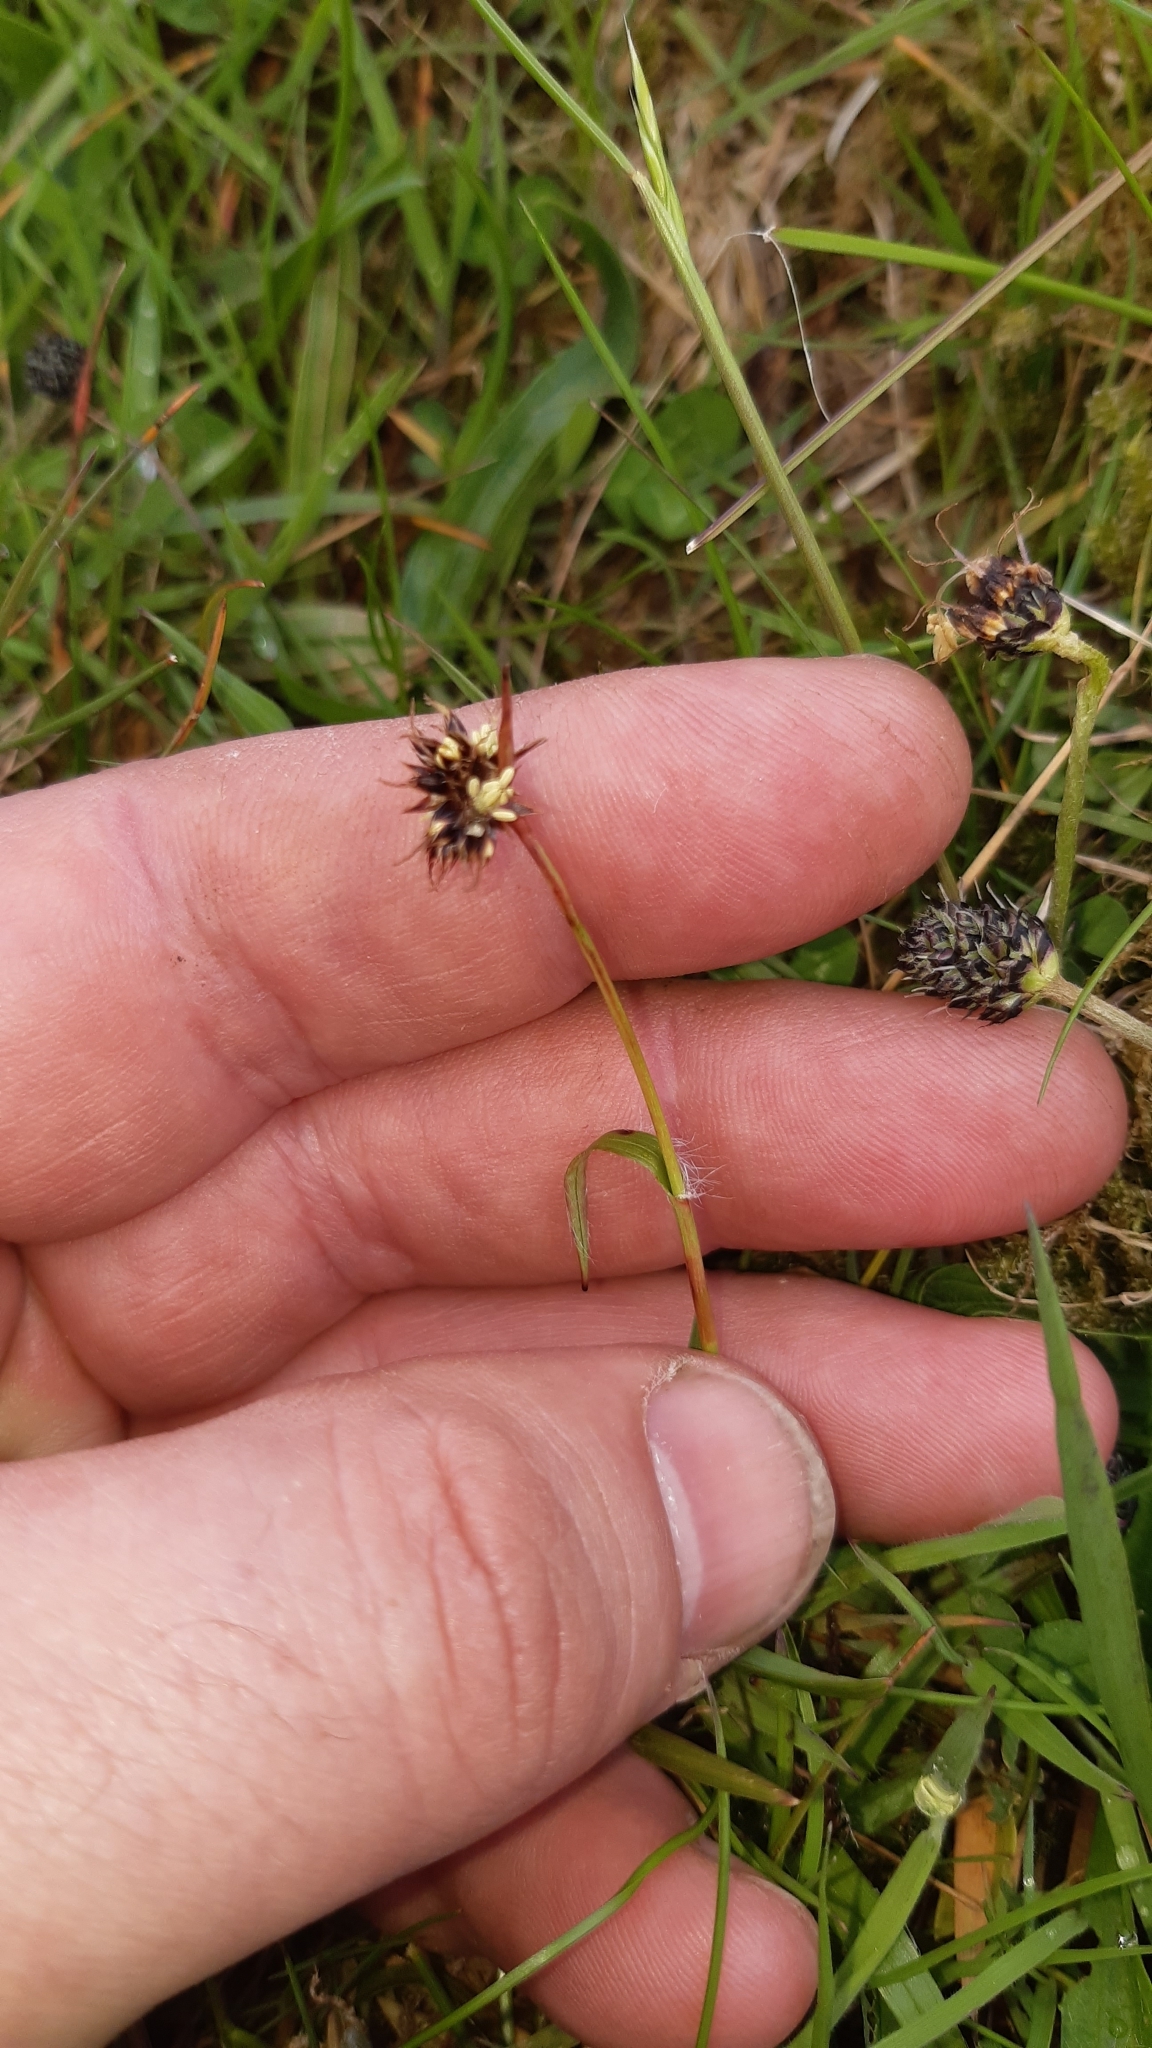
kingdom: Plantae
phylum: Tracheophyta
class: Liliopsida
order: Poales
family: Juncaceae
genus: Luzula
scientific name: Luzula campestris
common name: Field wood-rush
